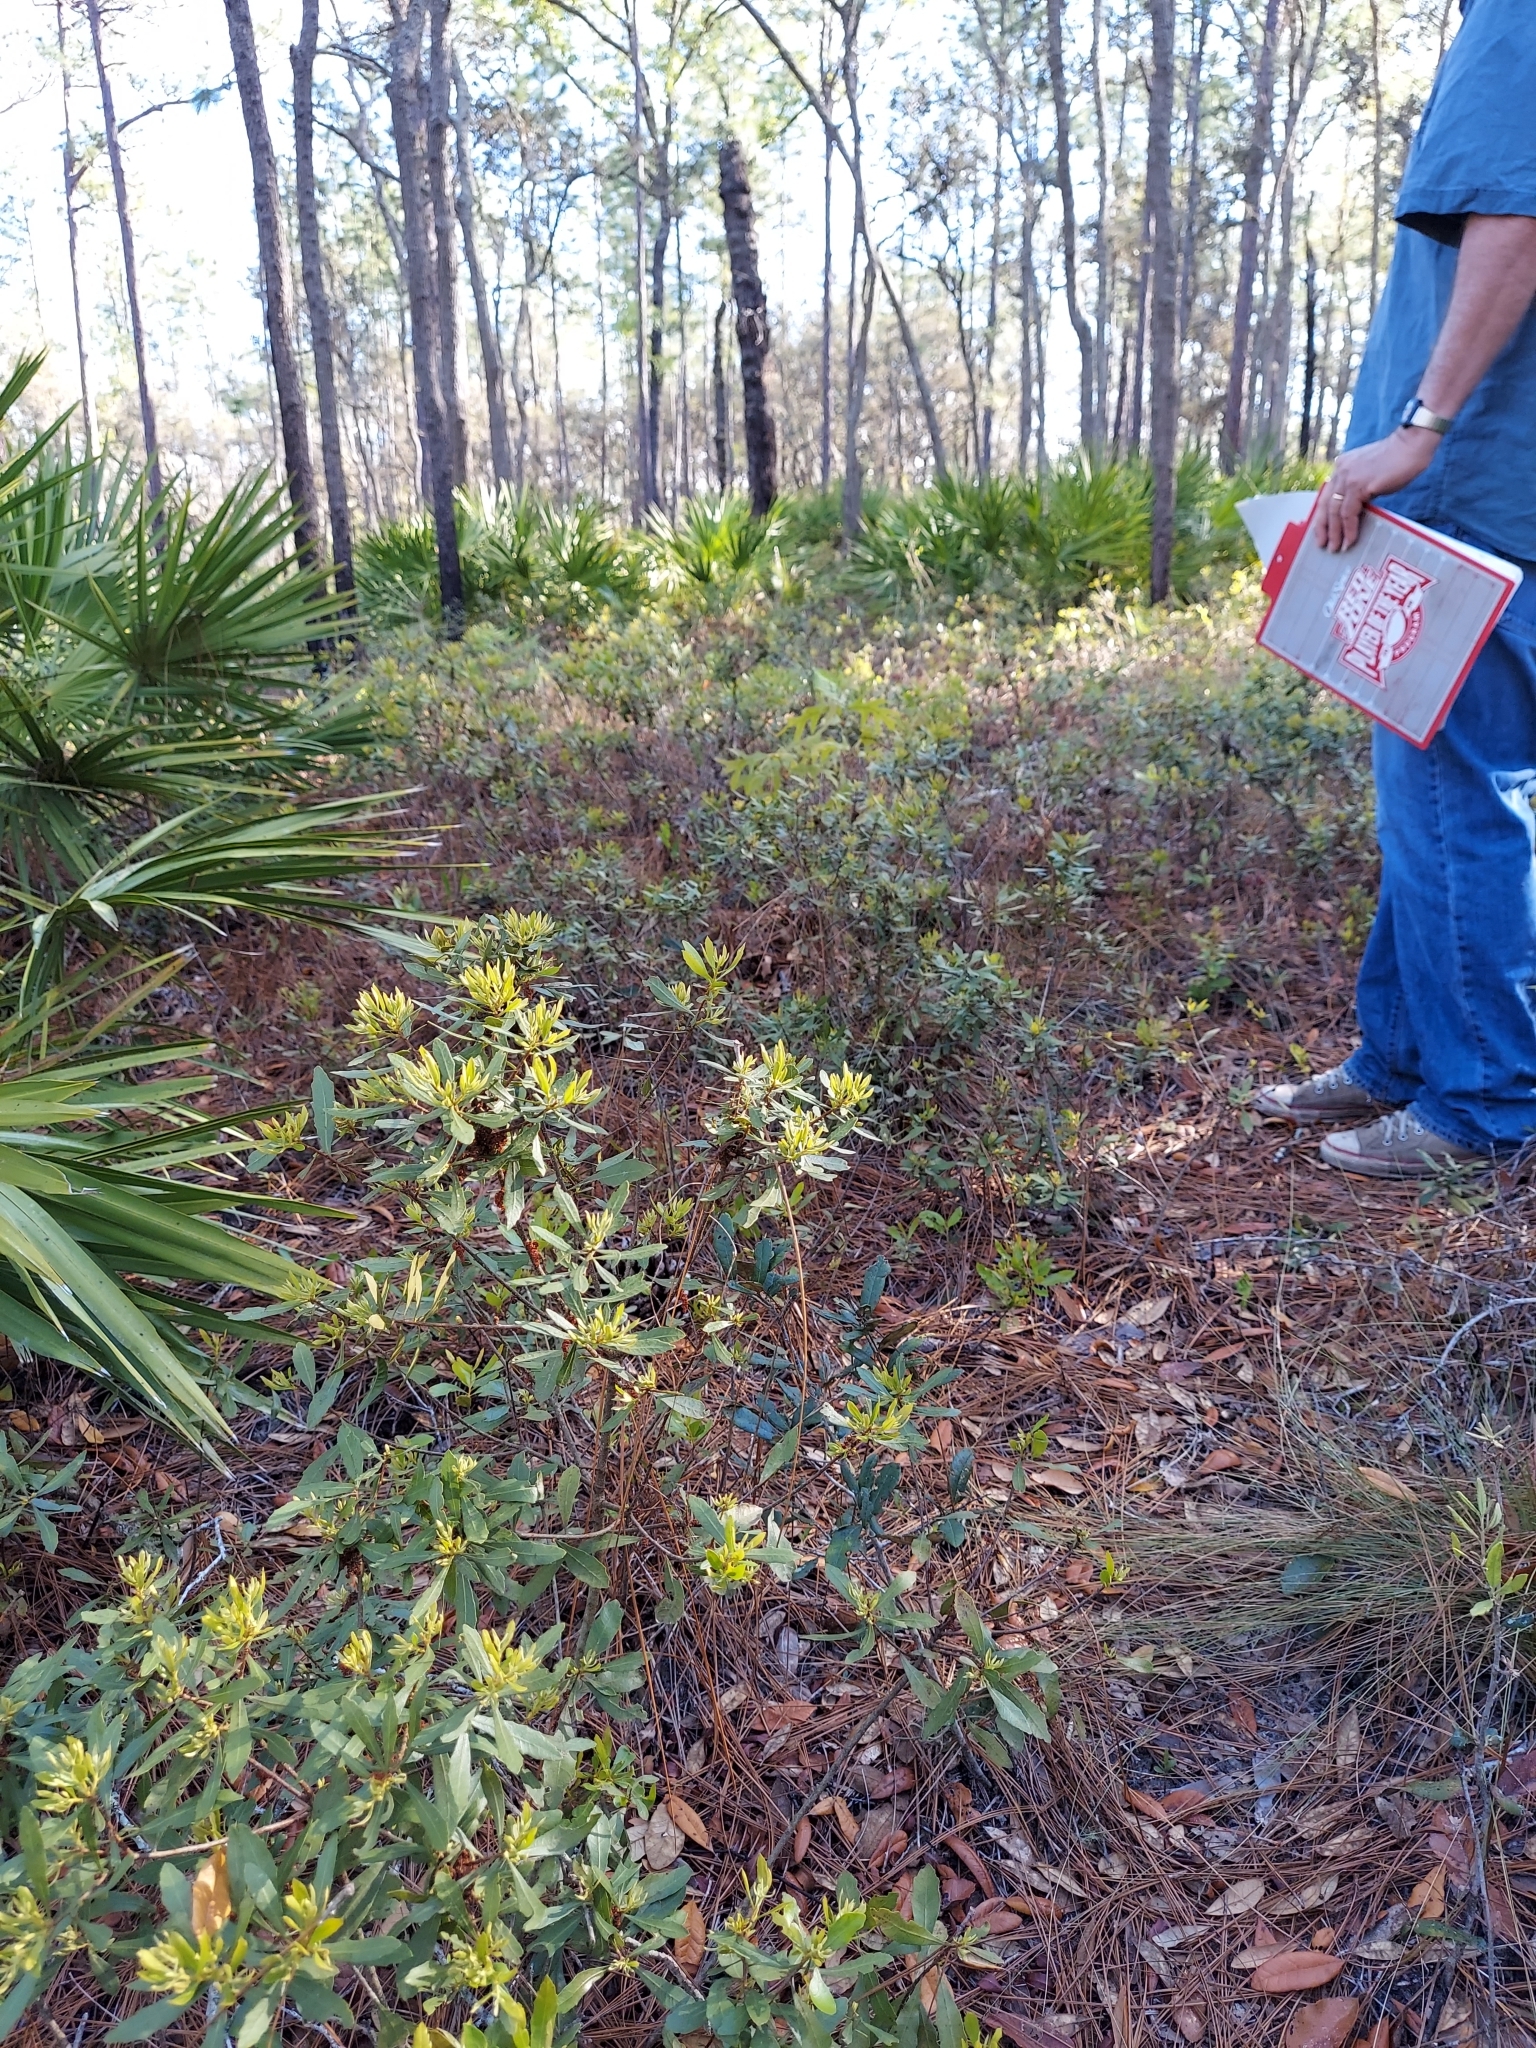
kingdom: Plantae
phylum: Tracheophyta
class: Magnoliopsida
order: Fagales
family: Myricaceae
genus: Morella
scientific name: Morella cerifera
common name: Wax myrtle
